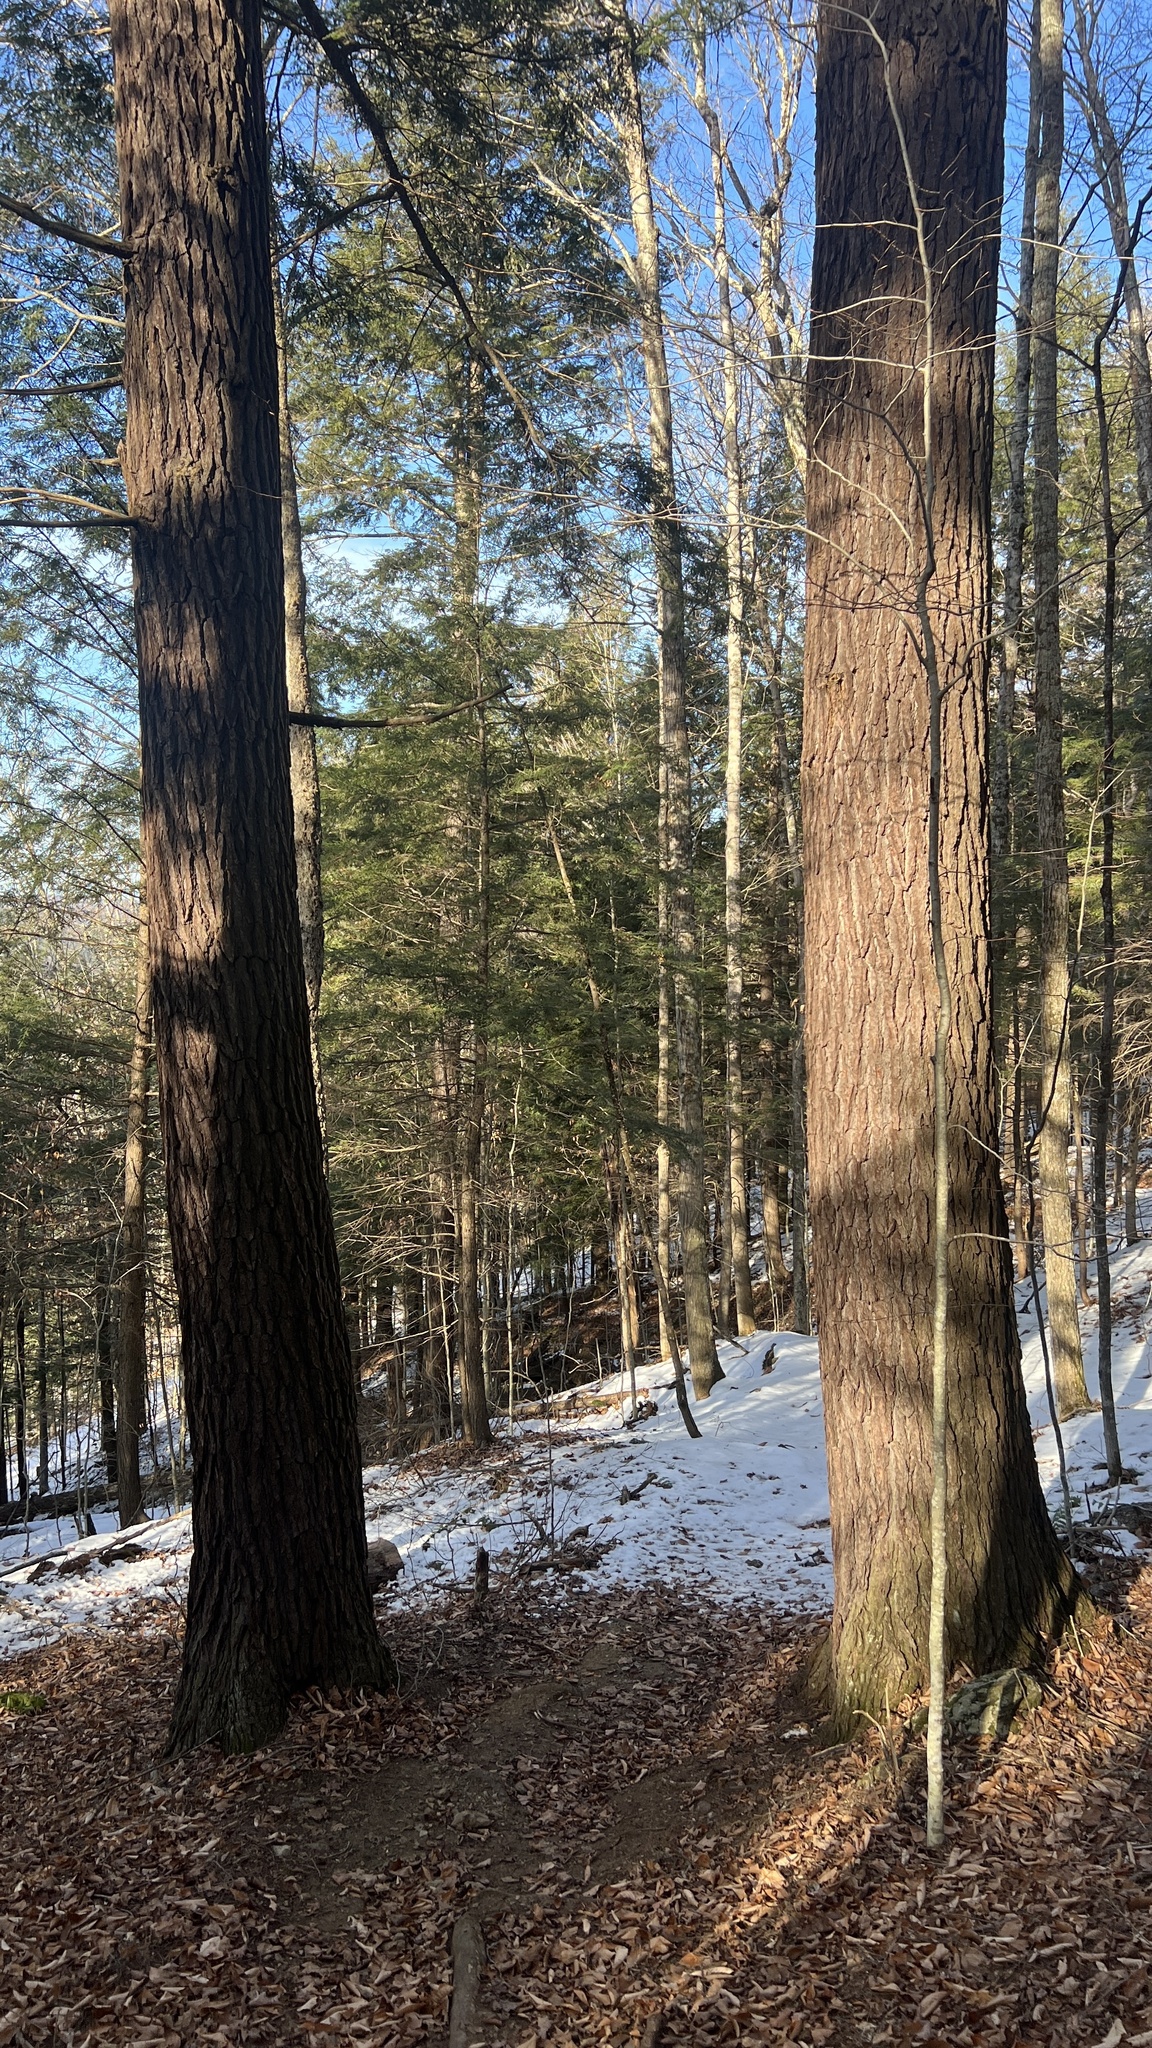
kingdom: Plantae
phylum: Tracheophyta
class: Pinopsida
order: Pinales
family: Pinaceae
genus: Tsuga
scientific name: Tsuga canadensis
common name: Eastern hemlock
